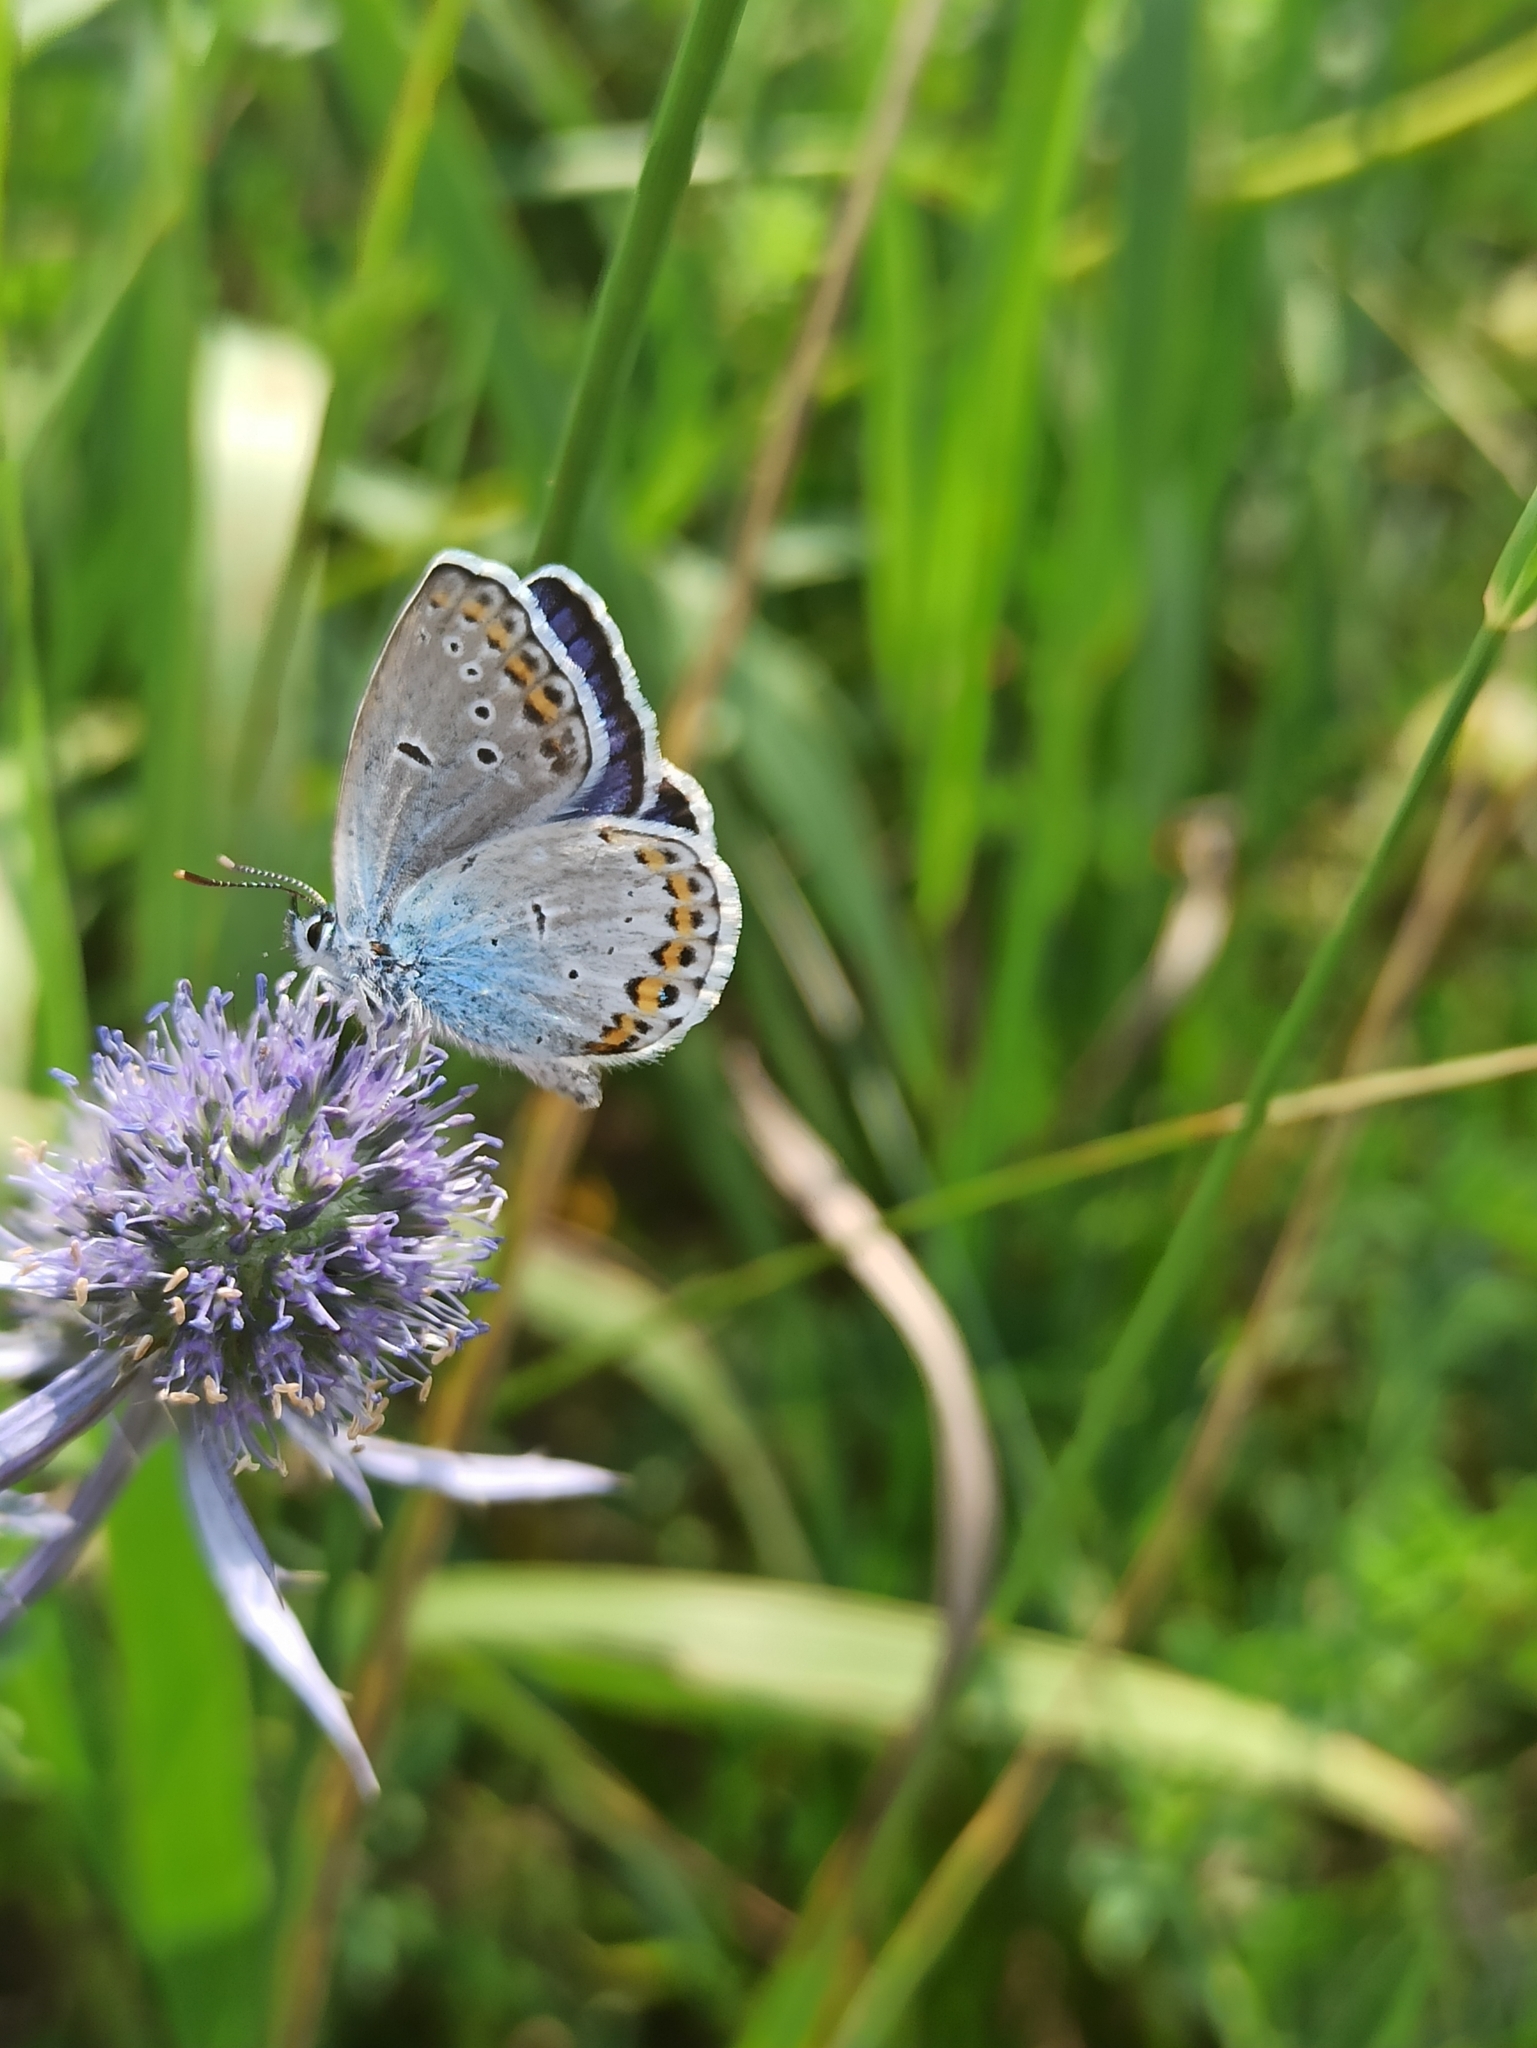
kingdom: Animalia
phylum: Arthropoda
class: Insecta
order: Lepidoptera
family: Lycaenidae
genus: Plebejus
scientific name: Plebejus argyrognomon
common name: Reverdin's blue
